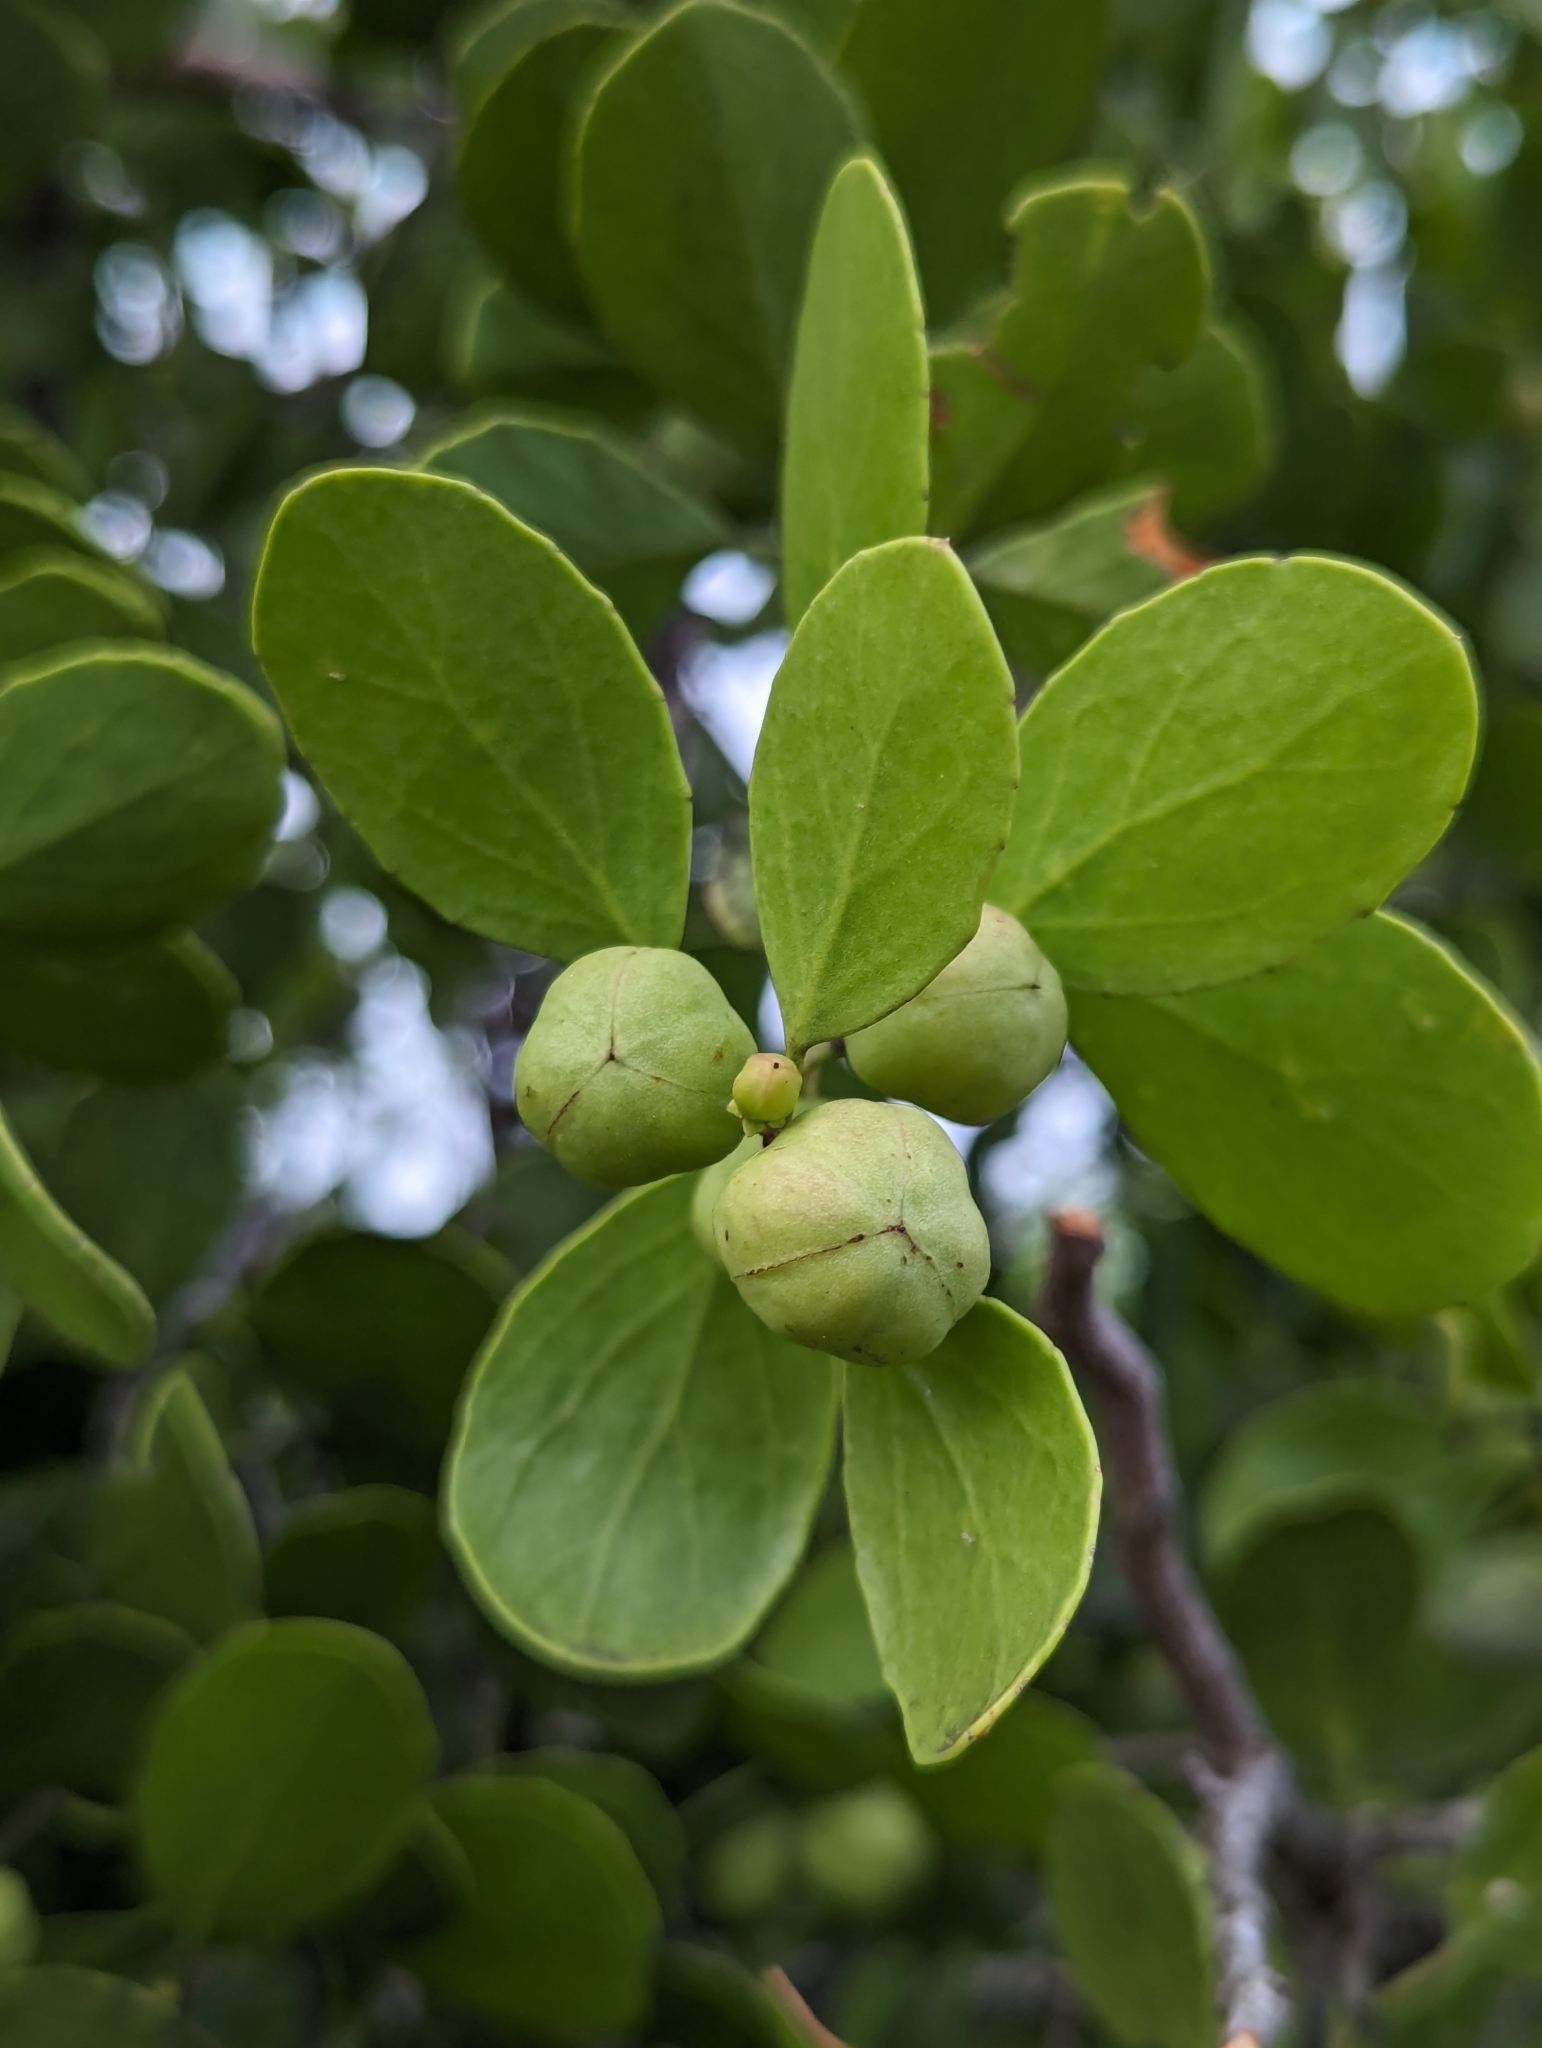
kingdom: Plantae
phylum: Tracheophyta
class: Magnoliopsida
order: Celastrales
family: Celastraceae
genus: Tricerma
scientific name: Tricerma octogonum
